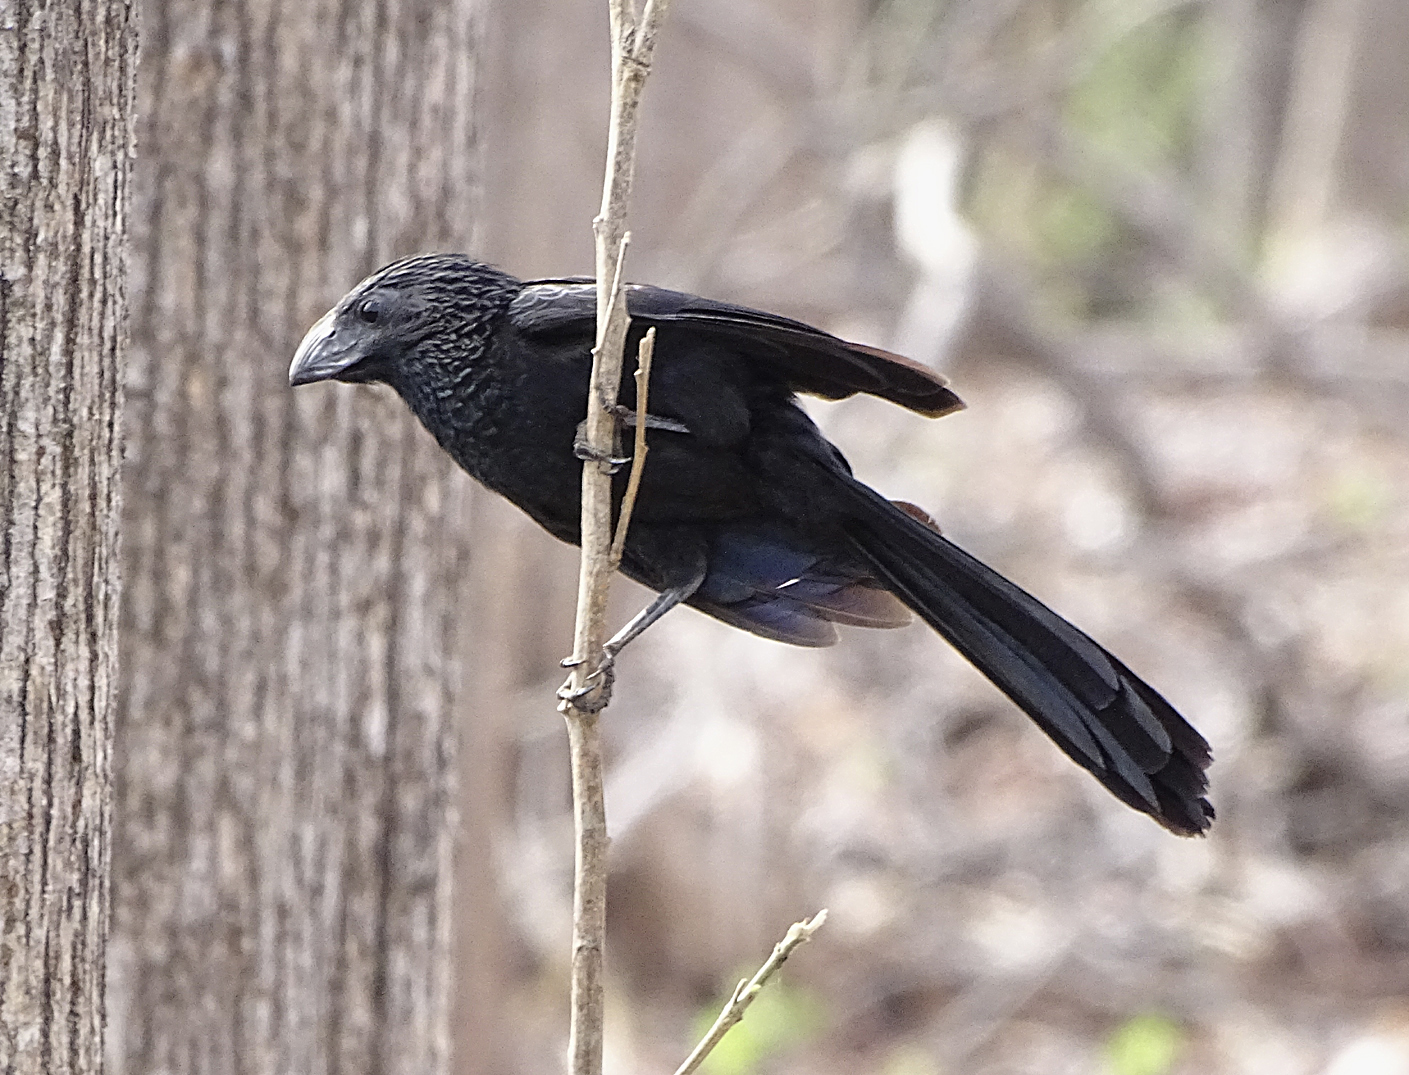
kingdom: Animalia
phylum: Chordata
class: Aves
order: Cuculiformes
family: Cuculidae
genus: Crotophaga
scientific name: Crotophaga sulcirostris
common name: Groove-billed ani
